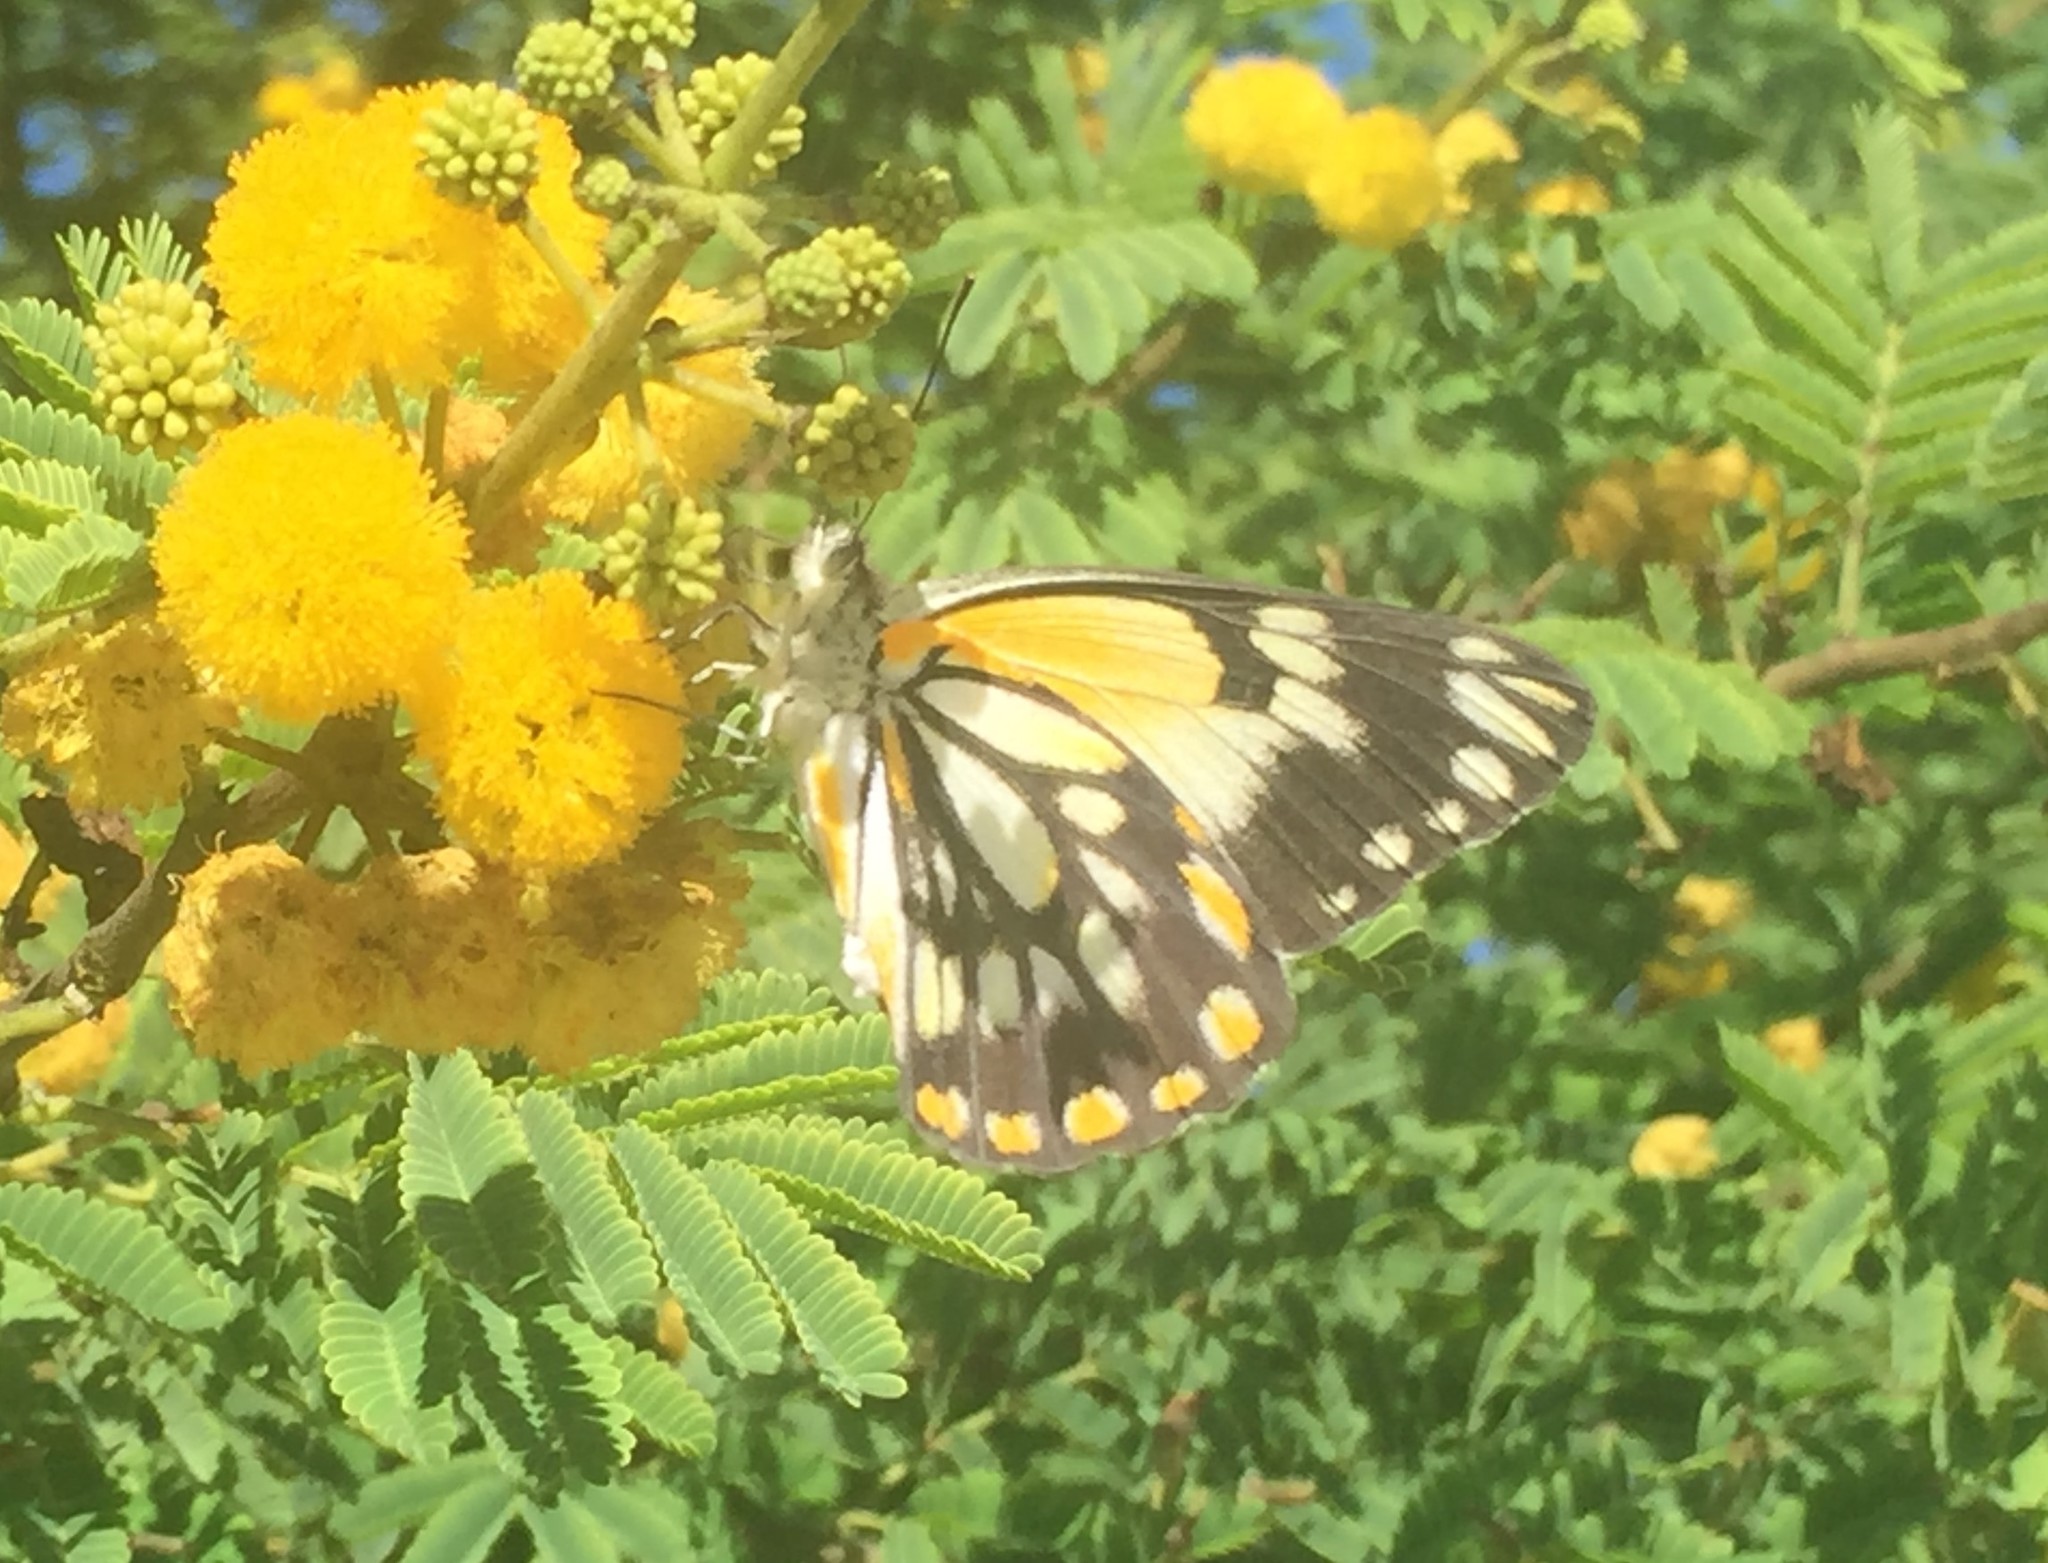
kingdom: Animalia
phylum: Arthropoda
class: Insecta
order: Lepidoptera
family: Pieridae
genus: Belenois
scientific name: Belenois java
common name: Caper white
